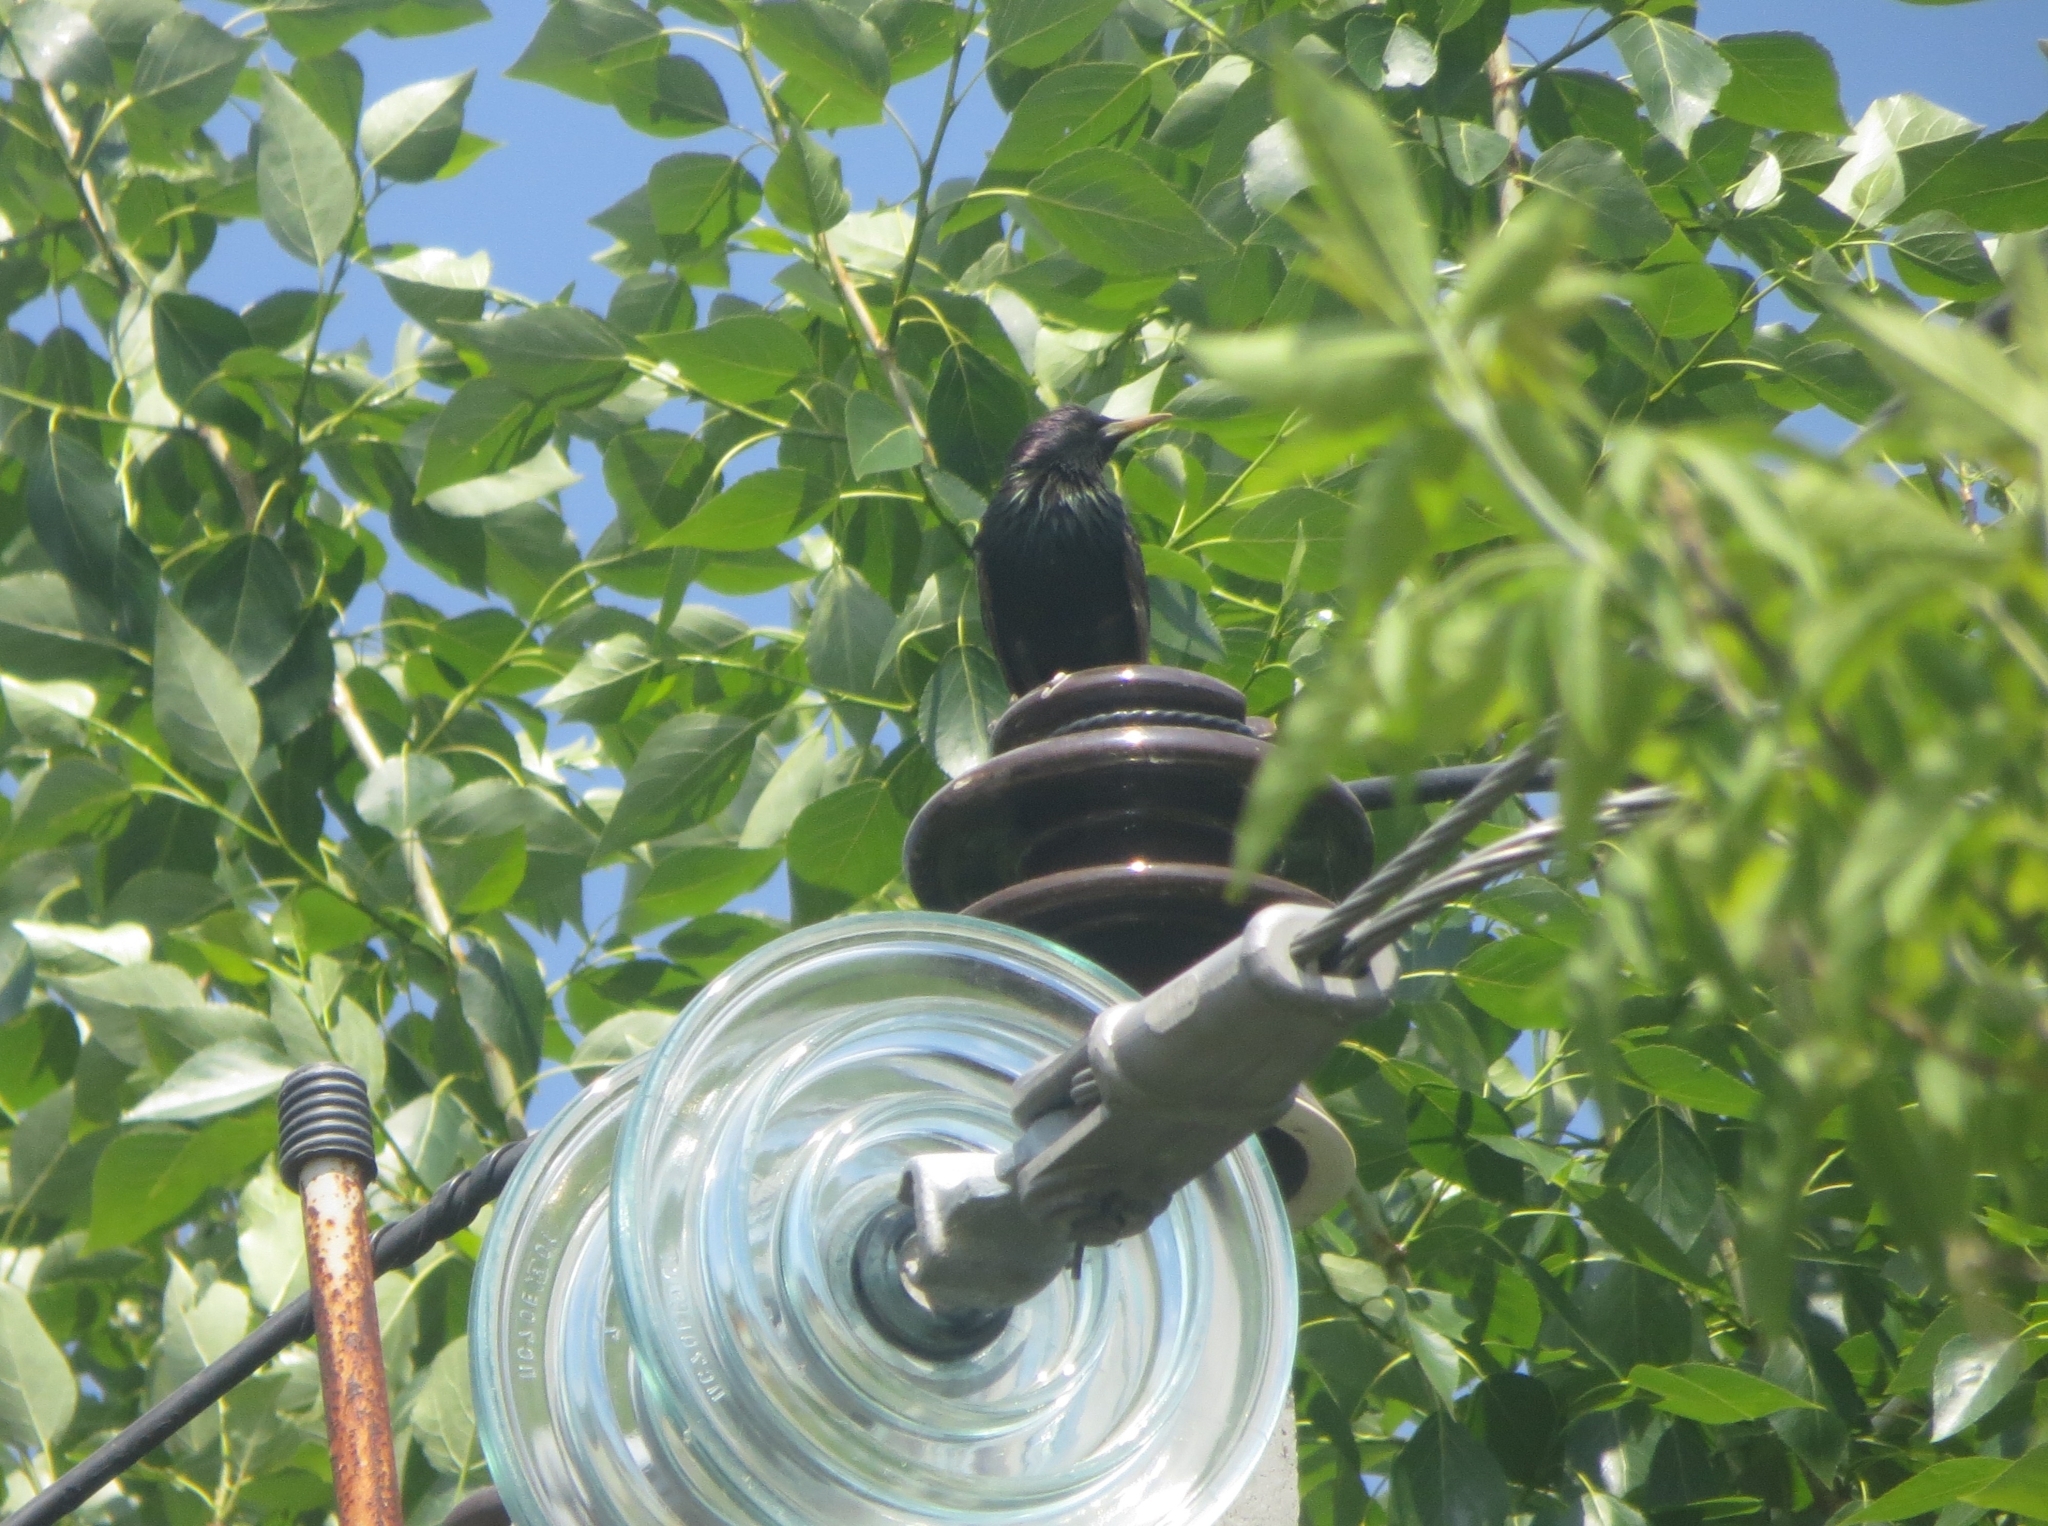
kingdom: Animalia
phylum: Chordata
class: Aves
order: Passeriformes
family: Sturnidae
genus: Sturnus
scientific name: Sturnus vulgaris
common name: Common starling
